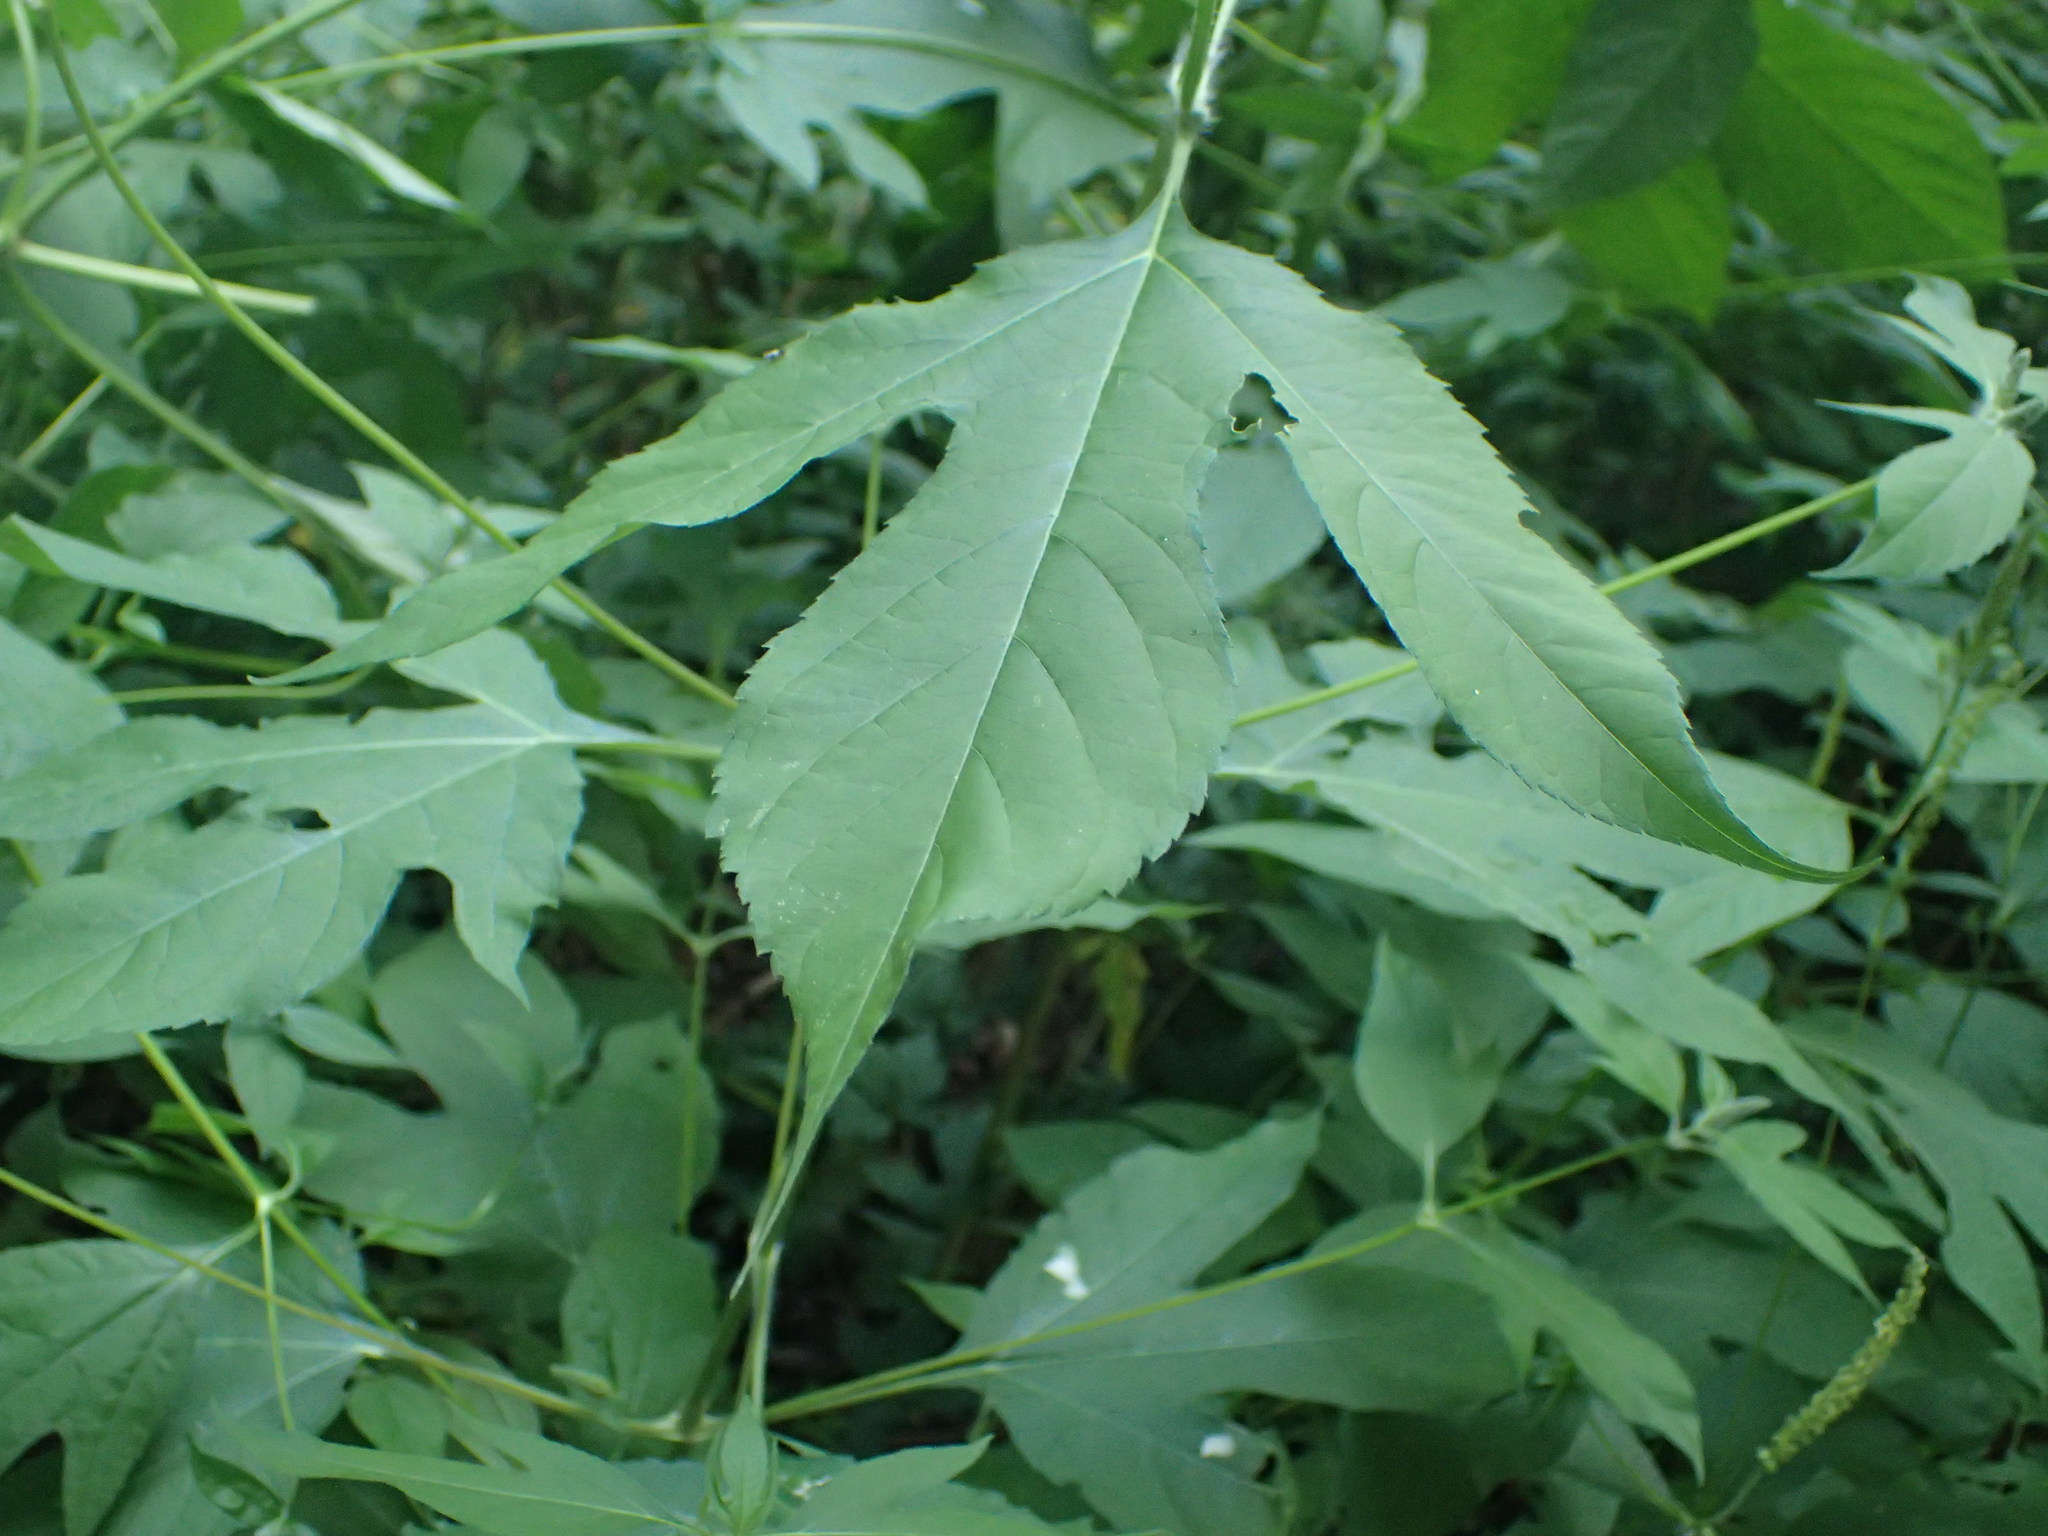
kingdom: Plantae
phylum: Tracheophyta
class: Magnoliopsida
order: Asterales
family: Asteraceae
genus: Ambrosia
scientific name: Ambrosia trifida
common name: Giant ragweed
